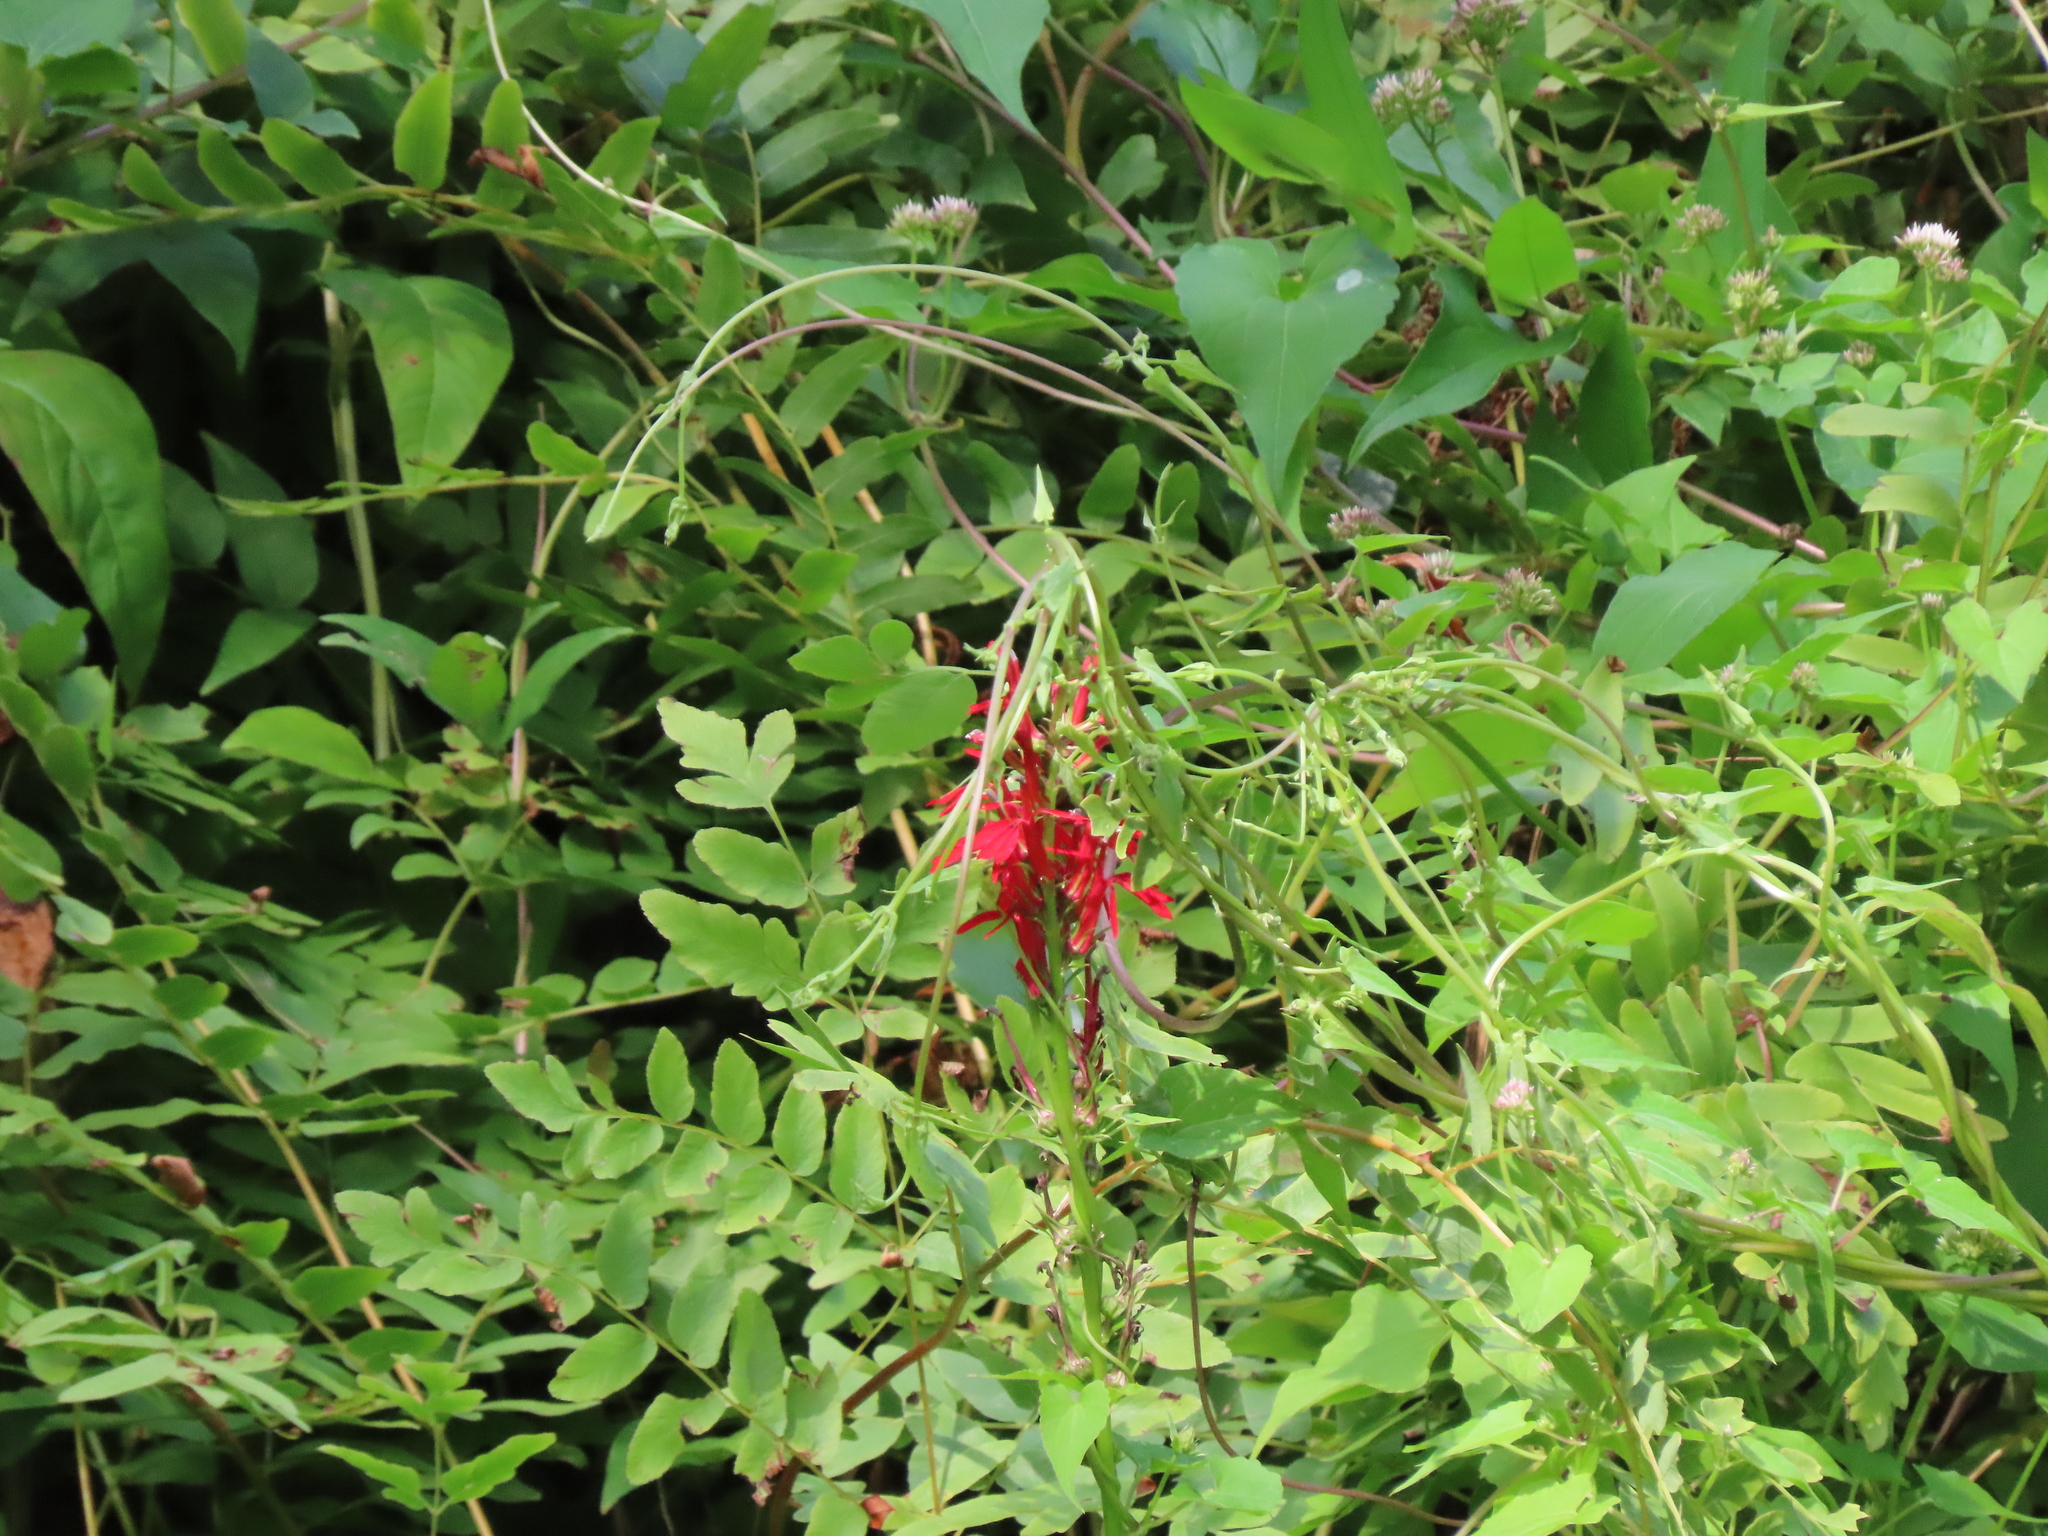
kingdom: Plantae
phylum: Tracheophyta
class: Magnoliopsida
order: Asterales
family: Campanulaceae
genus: Lobelia
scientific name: Lobelia cardinalis
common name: Cardinal flower
